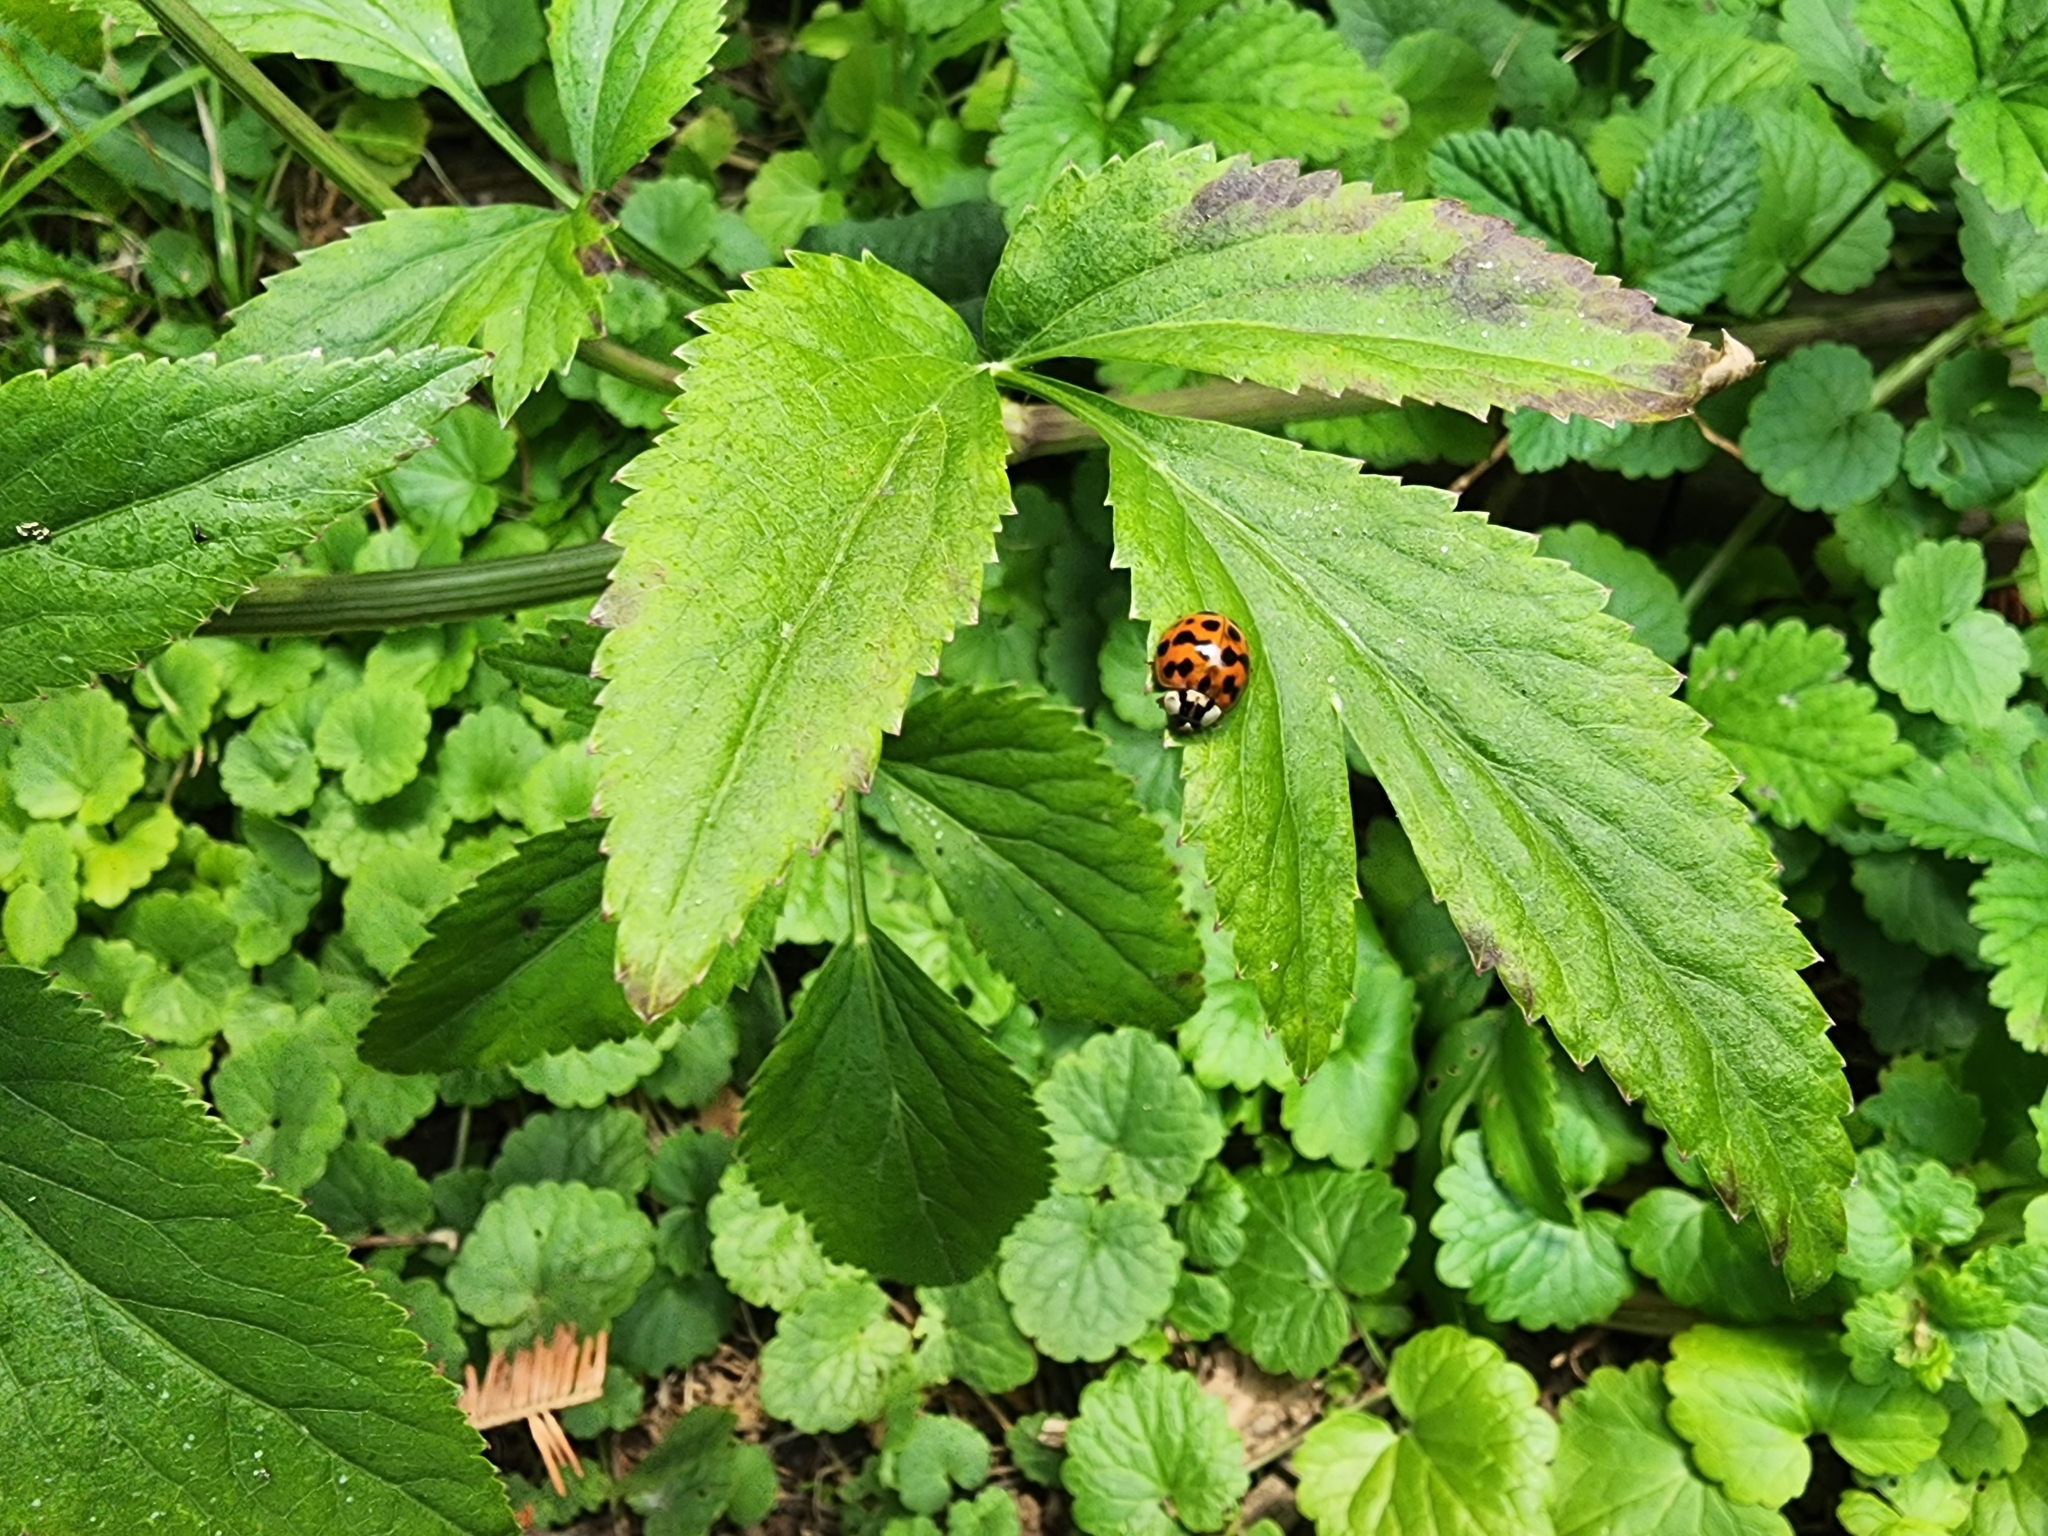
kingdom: Animalia
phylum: Arthropoda
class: Insecta
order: Coleoptera
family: Coccinellidae
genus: Harmonia
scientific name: Harmonia axyridis
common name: Harlequin ladybird
